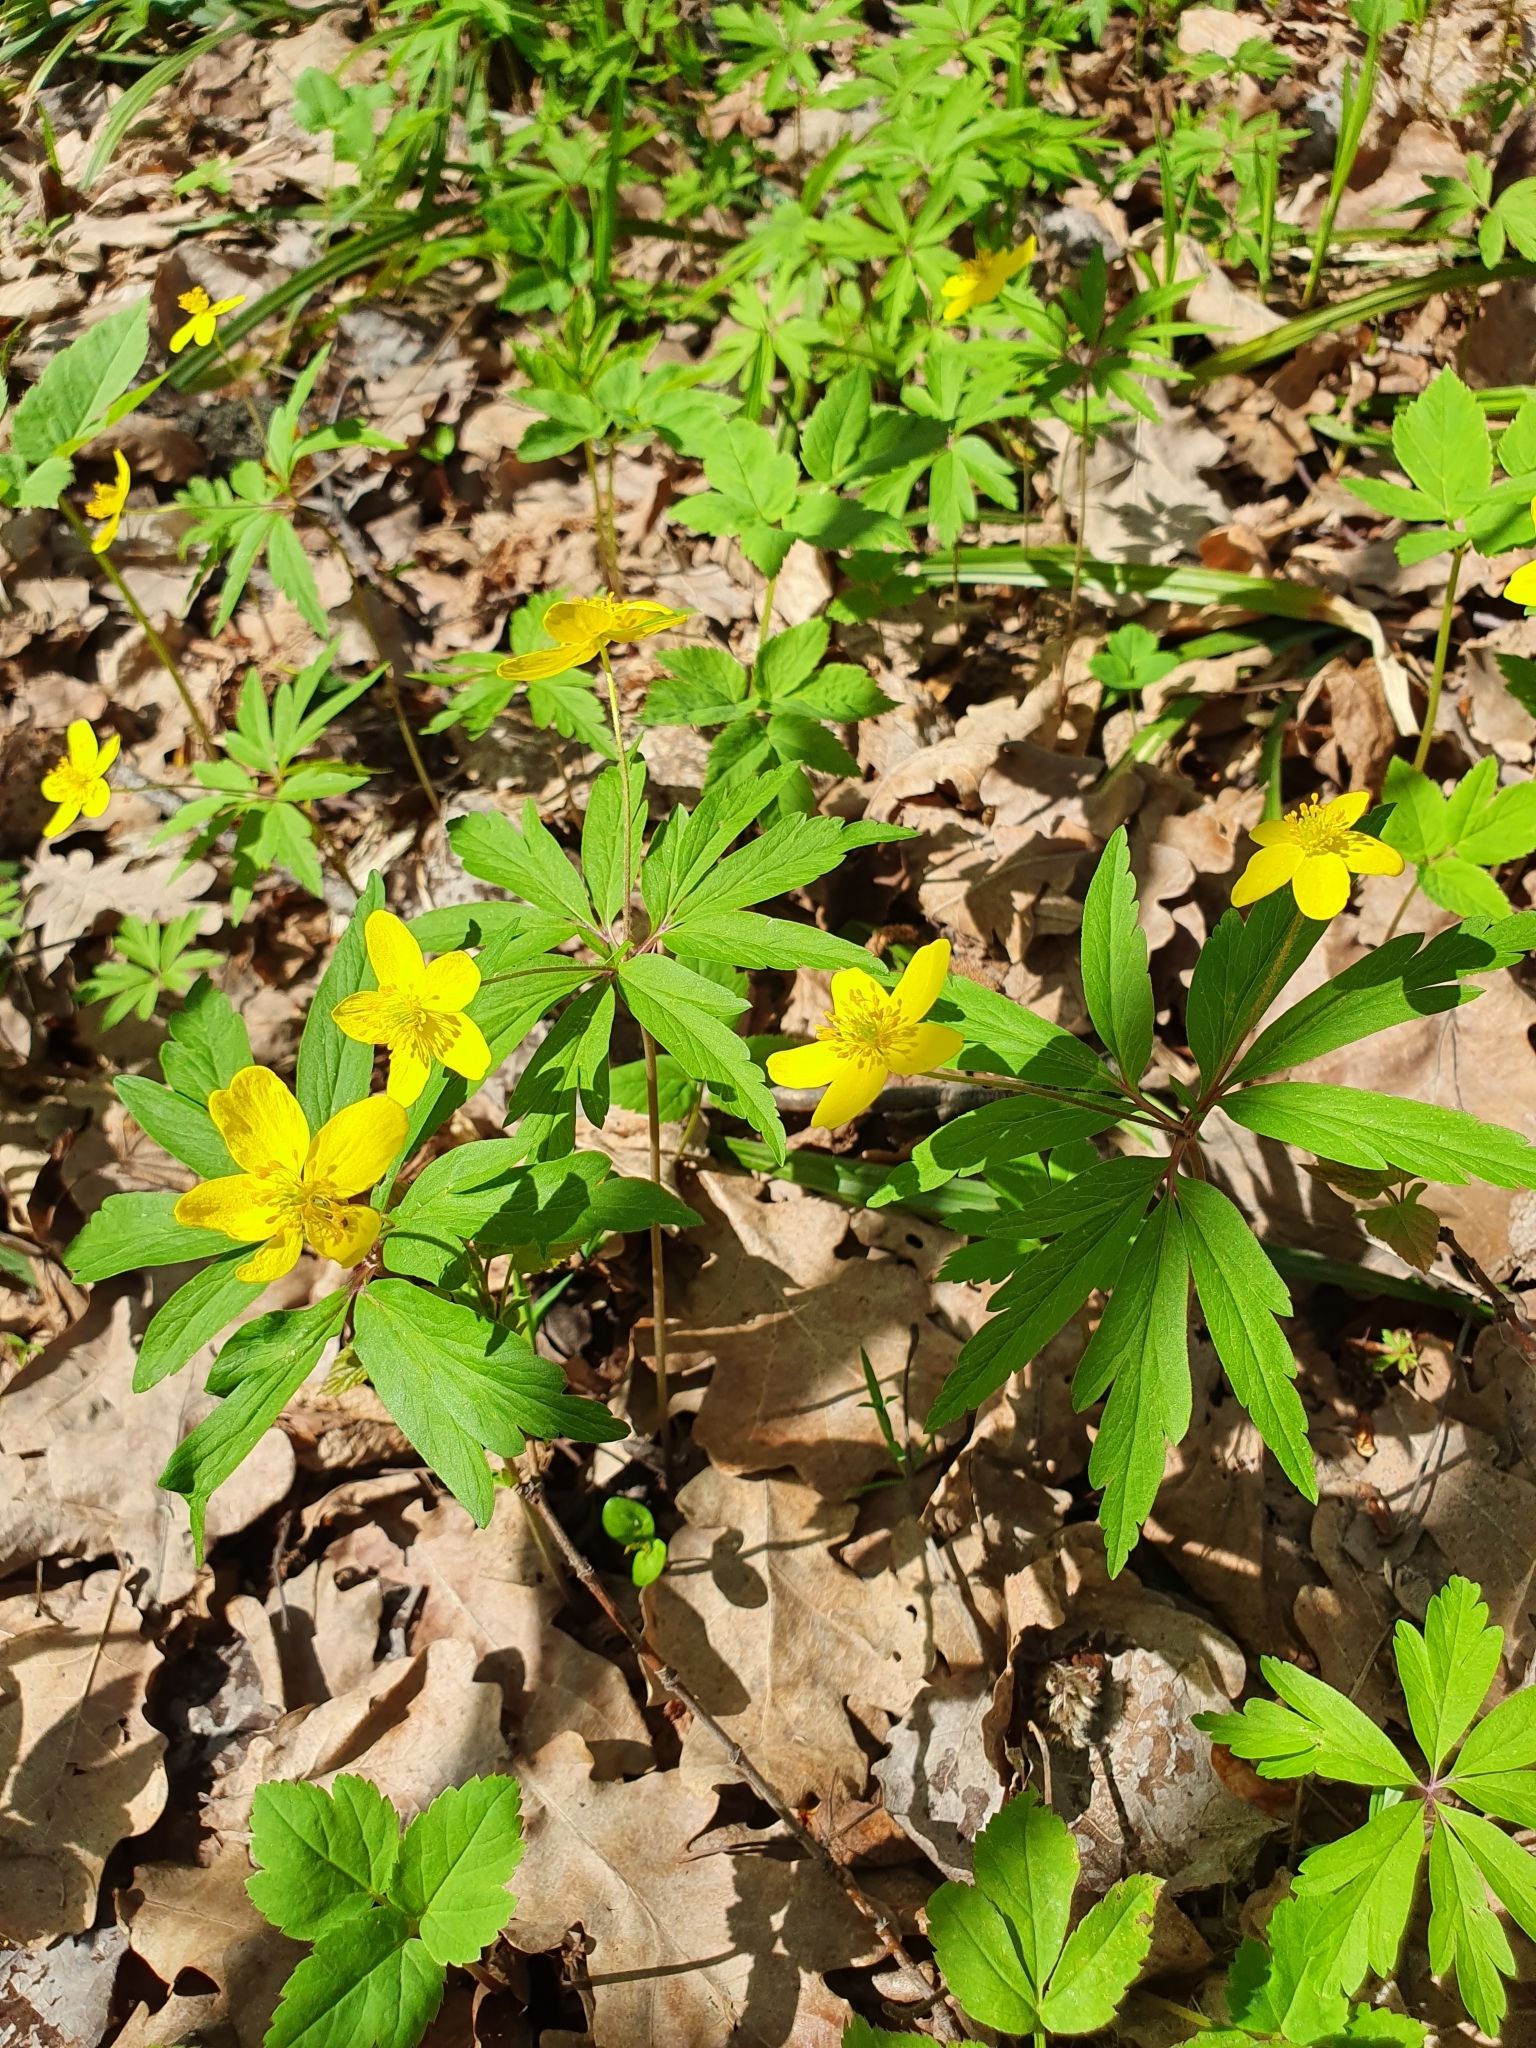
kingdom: Plantae
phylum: Tracheophyta
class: Magnoliopsida
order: Ranunculales
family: Ranunculaceae
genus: Anemone
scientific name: Anemone ranunculoides
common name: Yellow anemone
